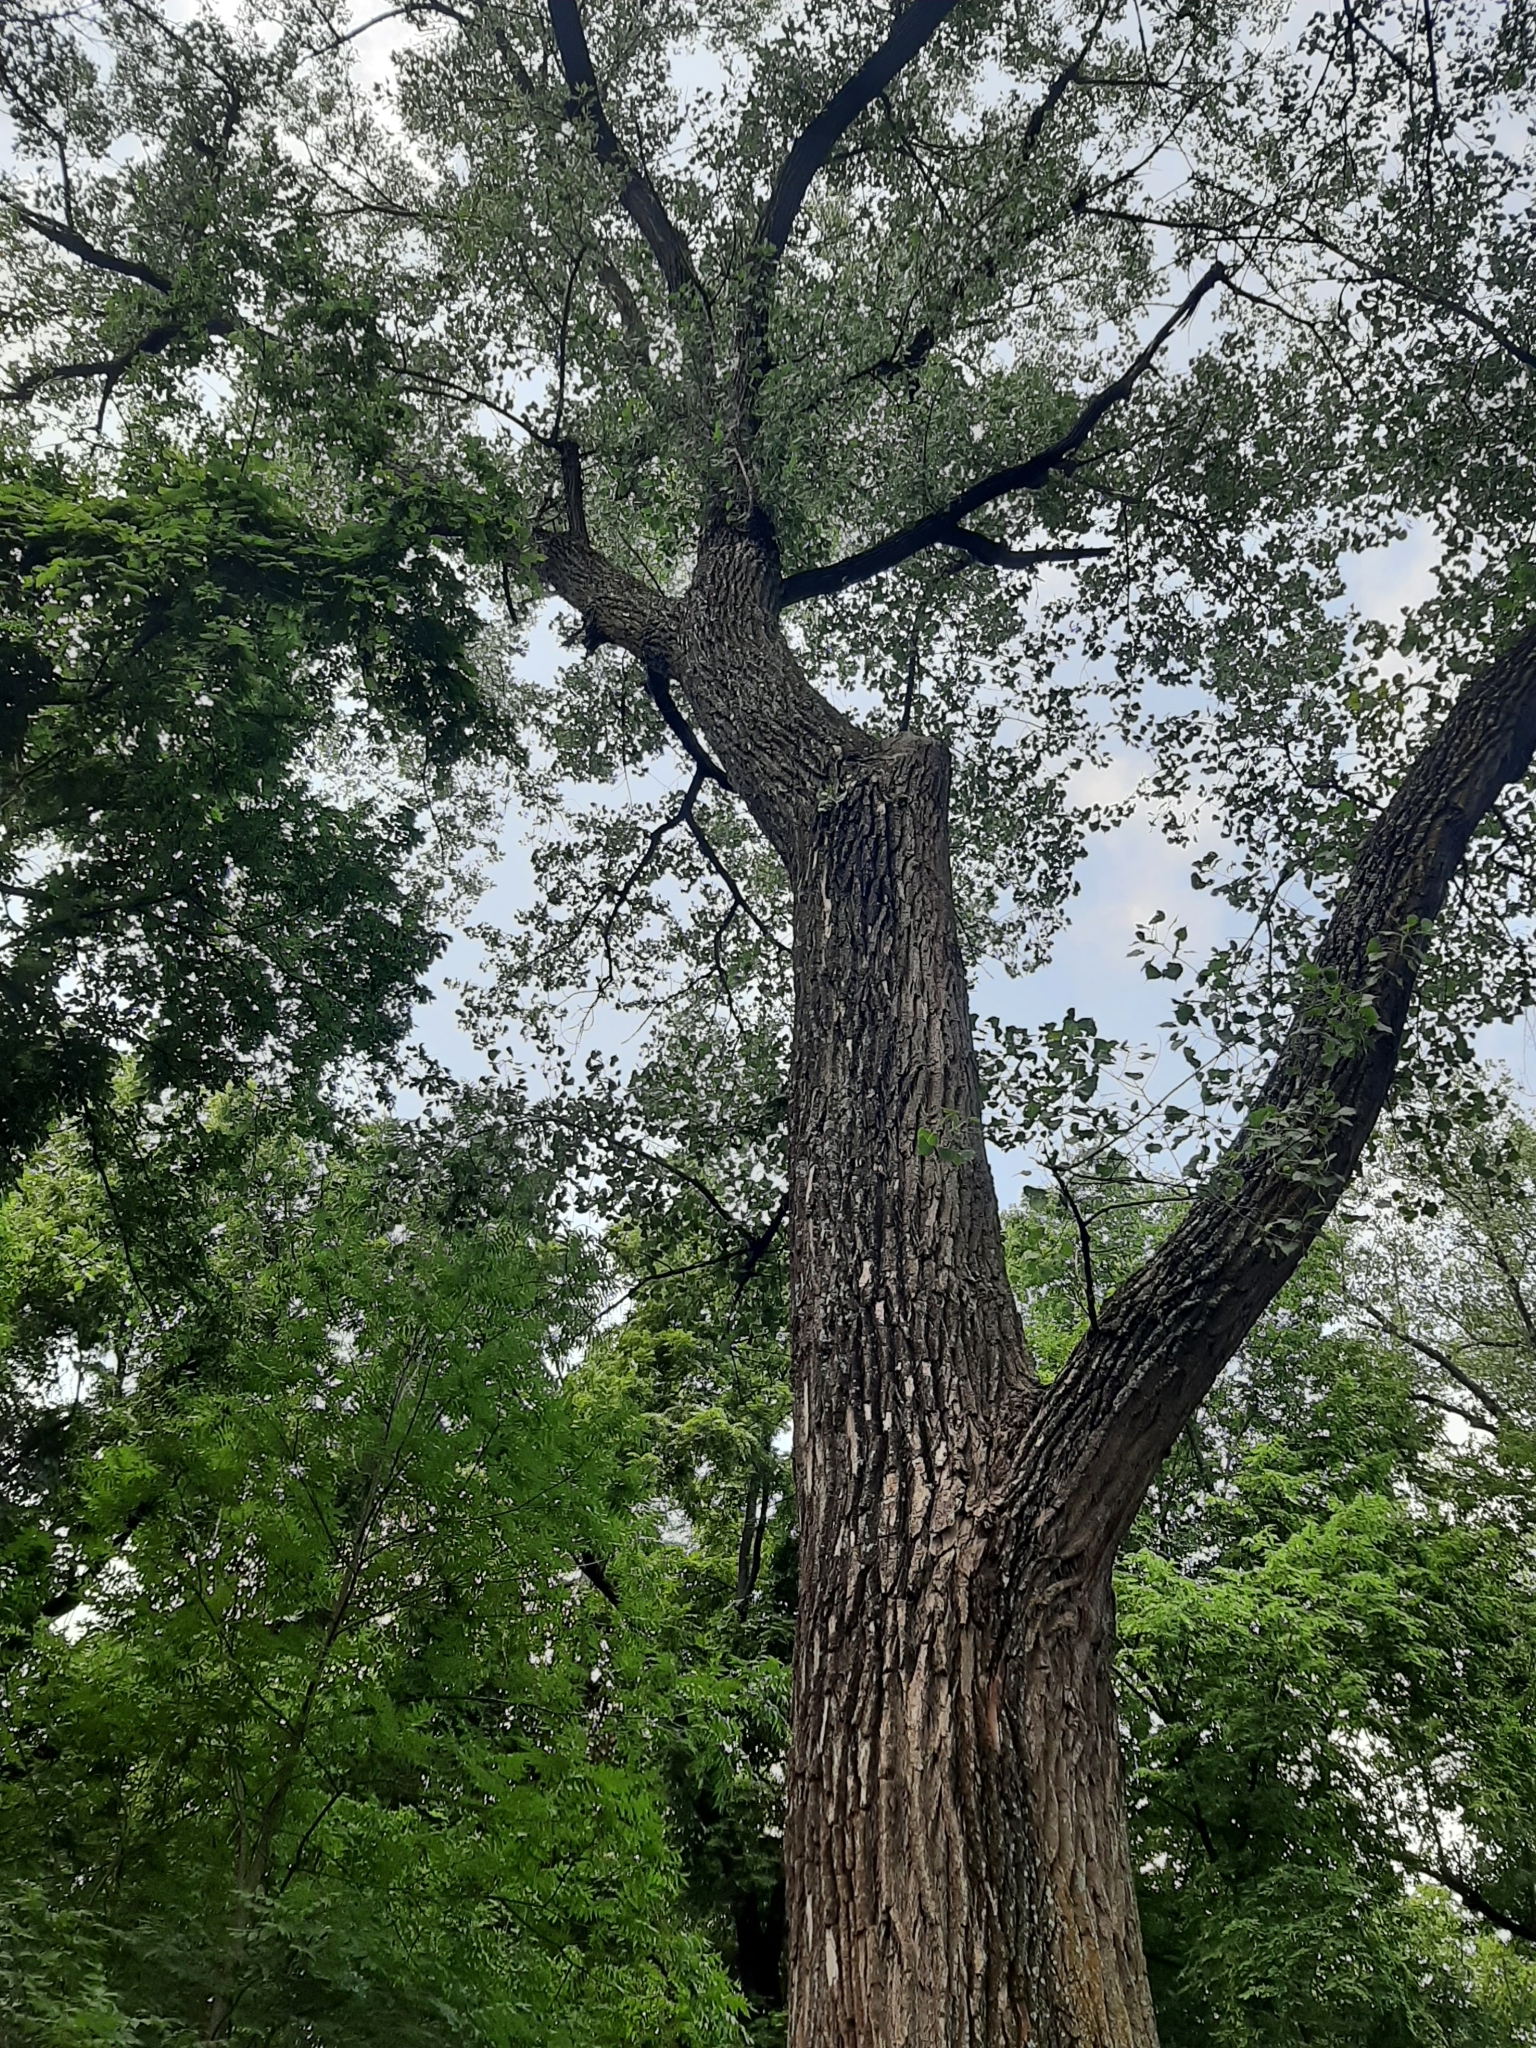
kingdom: Plantae
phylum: Tracheophyta
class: Magnoliopsida
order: Malpighiales
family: Salicaceae
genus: Populus
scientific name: Populus deltoides
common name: Eastern cottonwood
